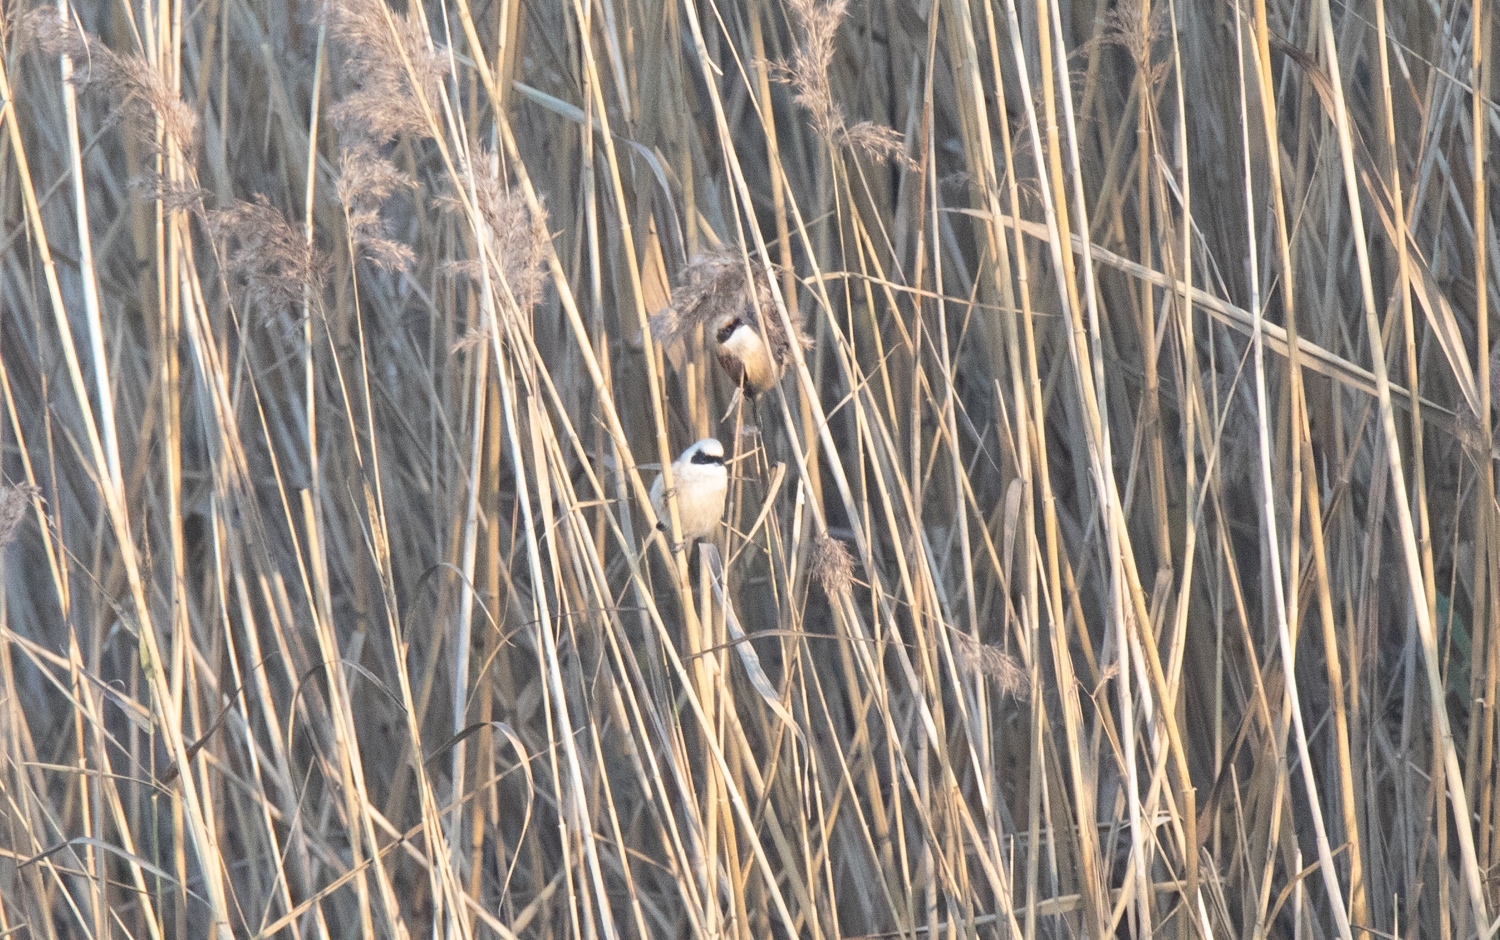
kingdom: Animalia
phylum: Chordata
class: Aves
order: Passeriformes
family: Remizidae
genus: Remiz
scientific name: Remiz pendulinus
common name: Eurasian penduline tit
